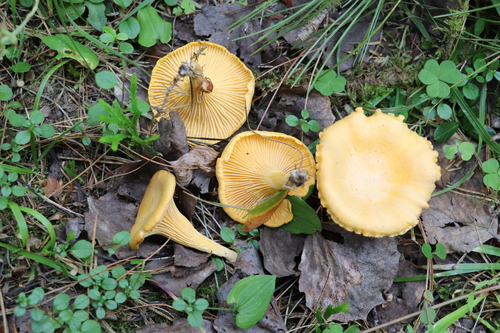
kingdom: Fungi
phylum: Basidiomycota
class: Agaricomycetes
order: Cantharellales
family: Hydnaceae
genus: Cantharellus
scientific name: Cantharellus cibarius
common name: Chanterelle
